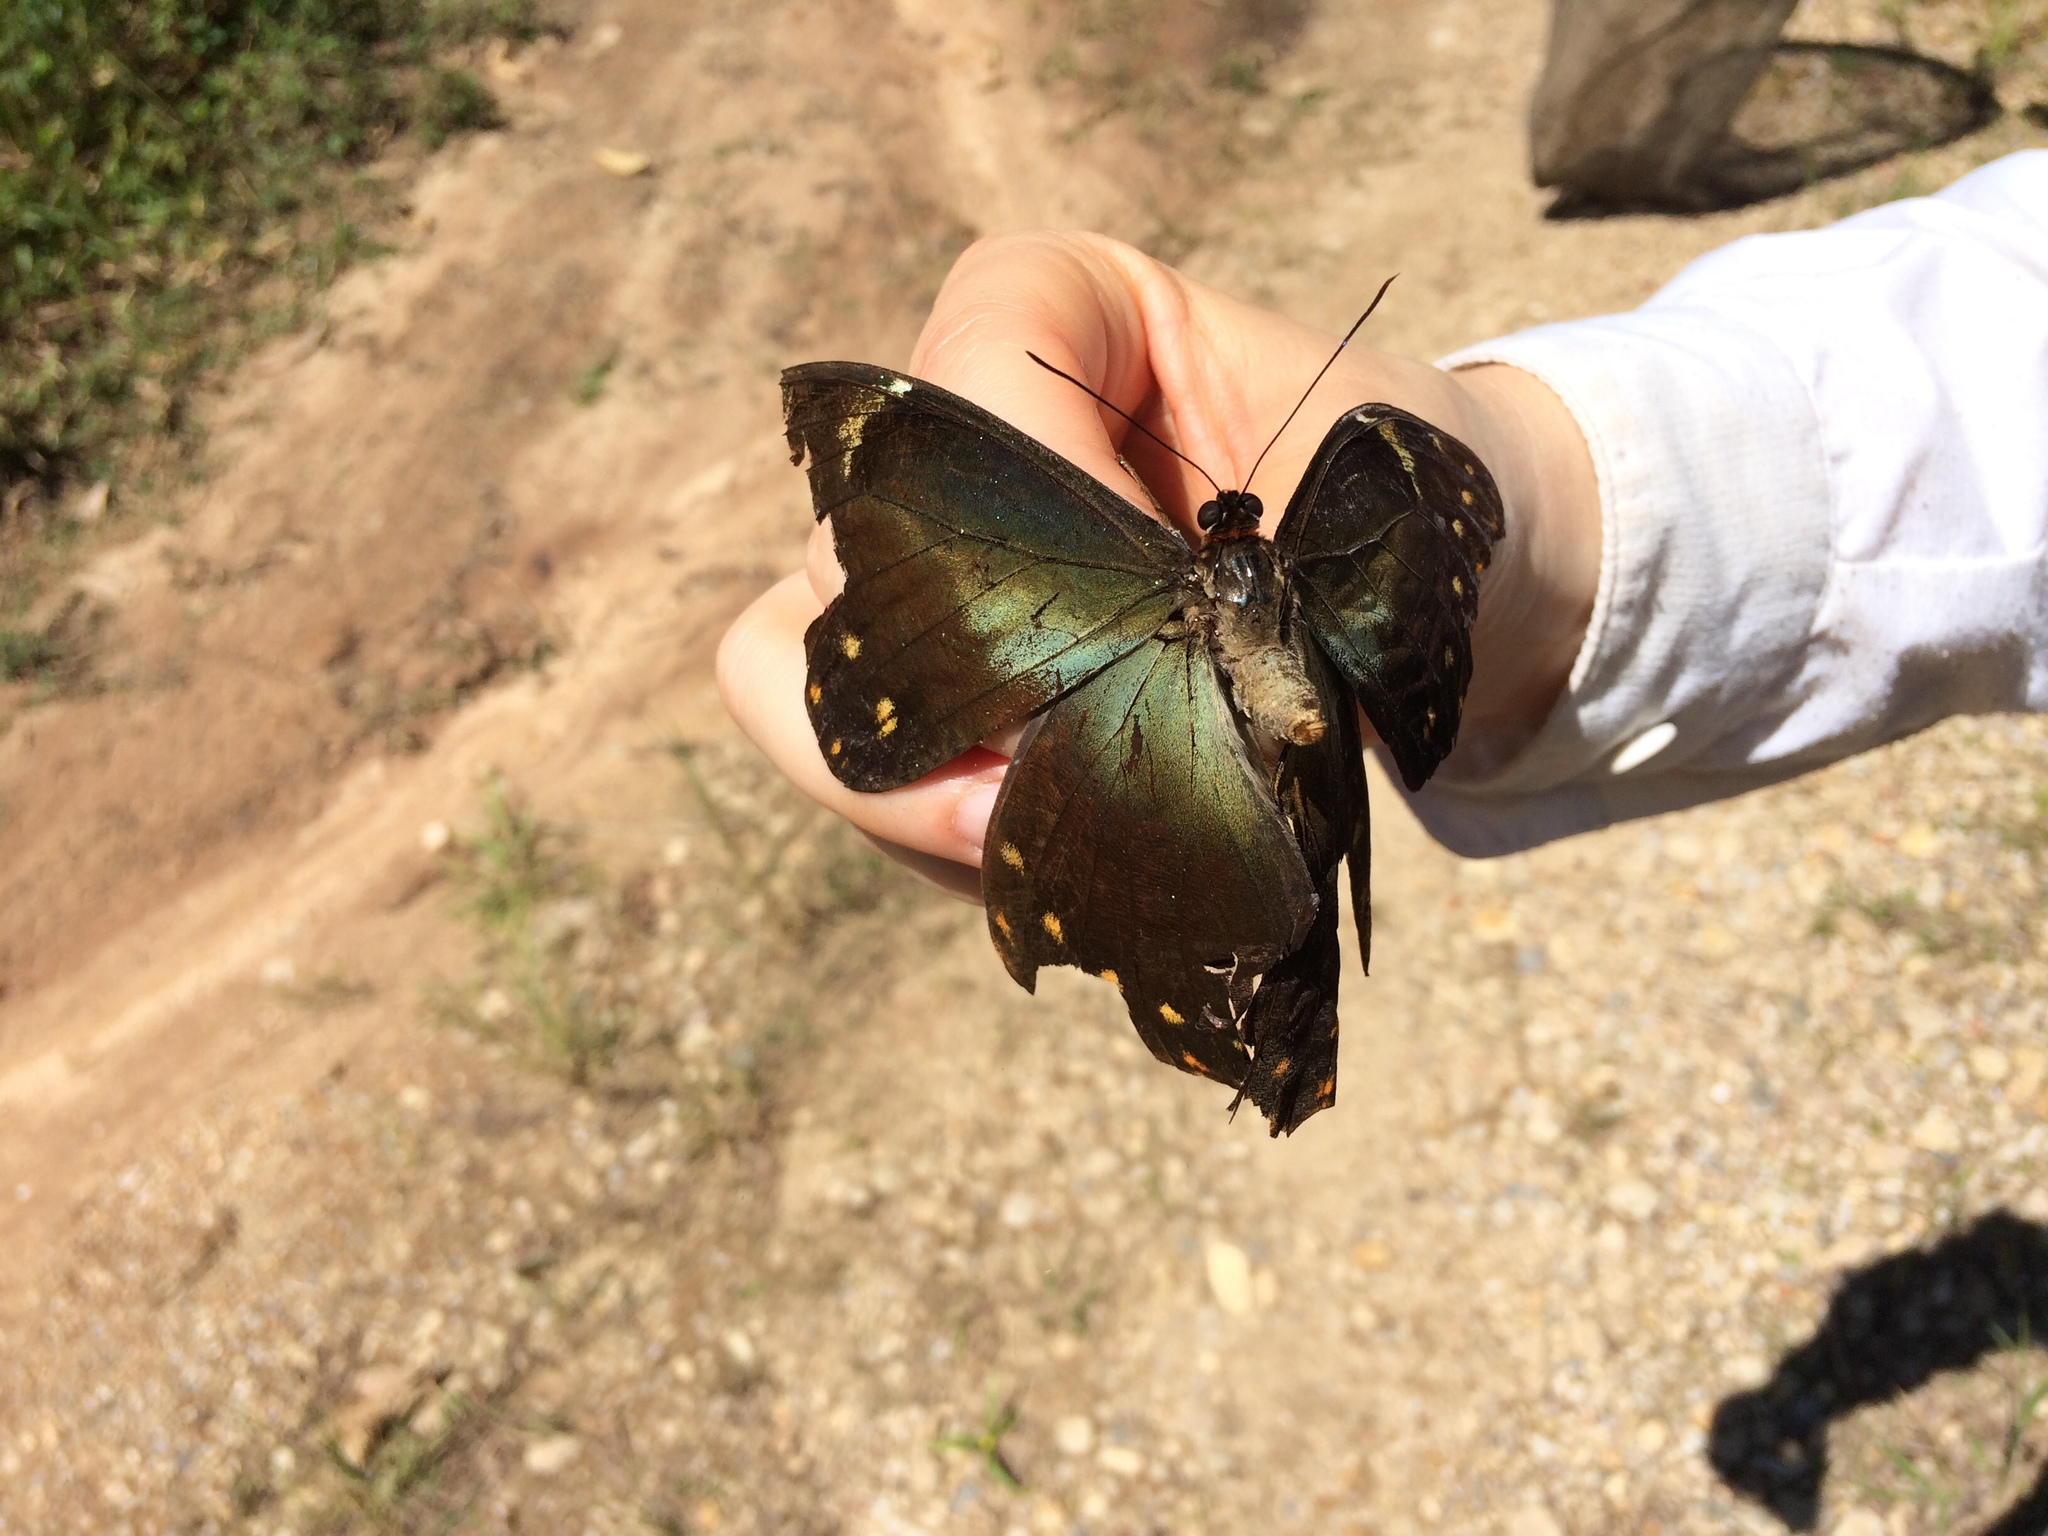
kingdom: Animalia
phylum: Arthropoda
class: Insecta
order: Lepidoptera
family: Nymphalidae
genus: Morpho
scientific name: Morpho hercules
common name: Hercules morpho
